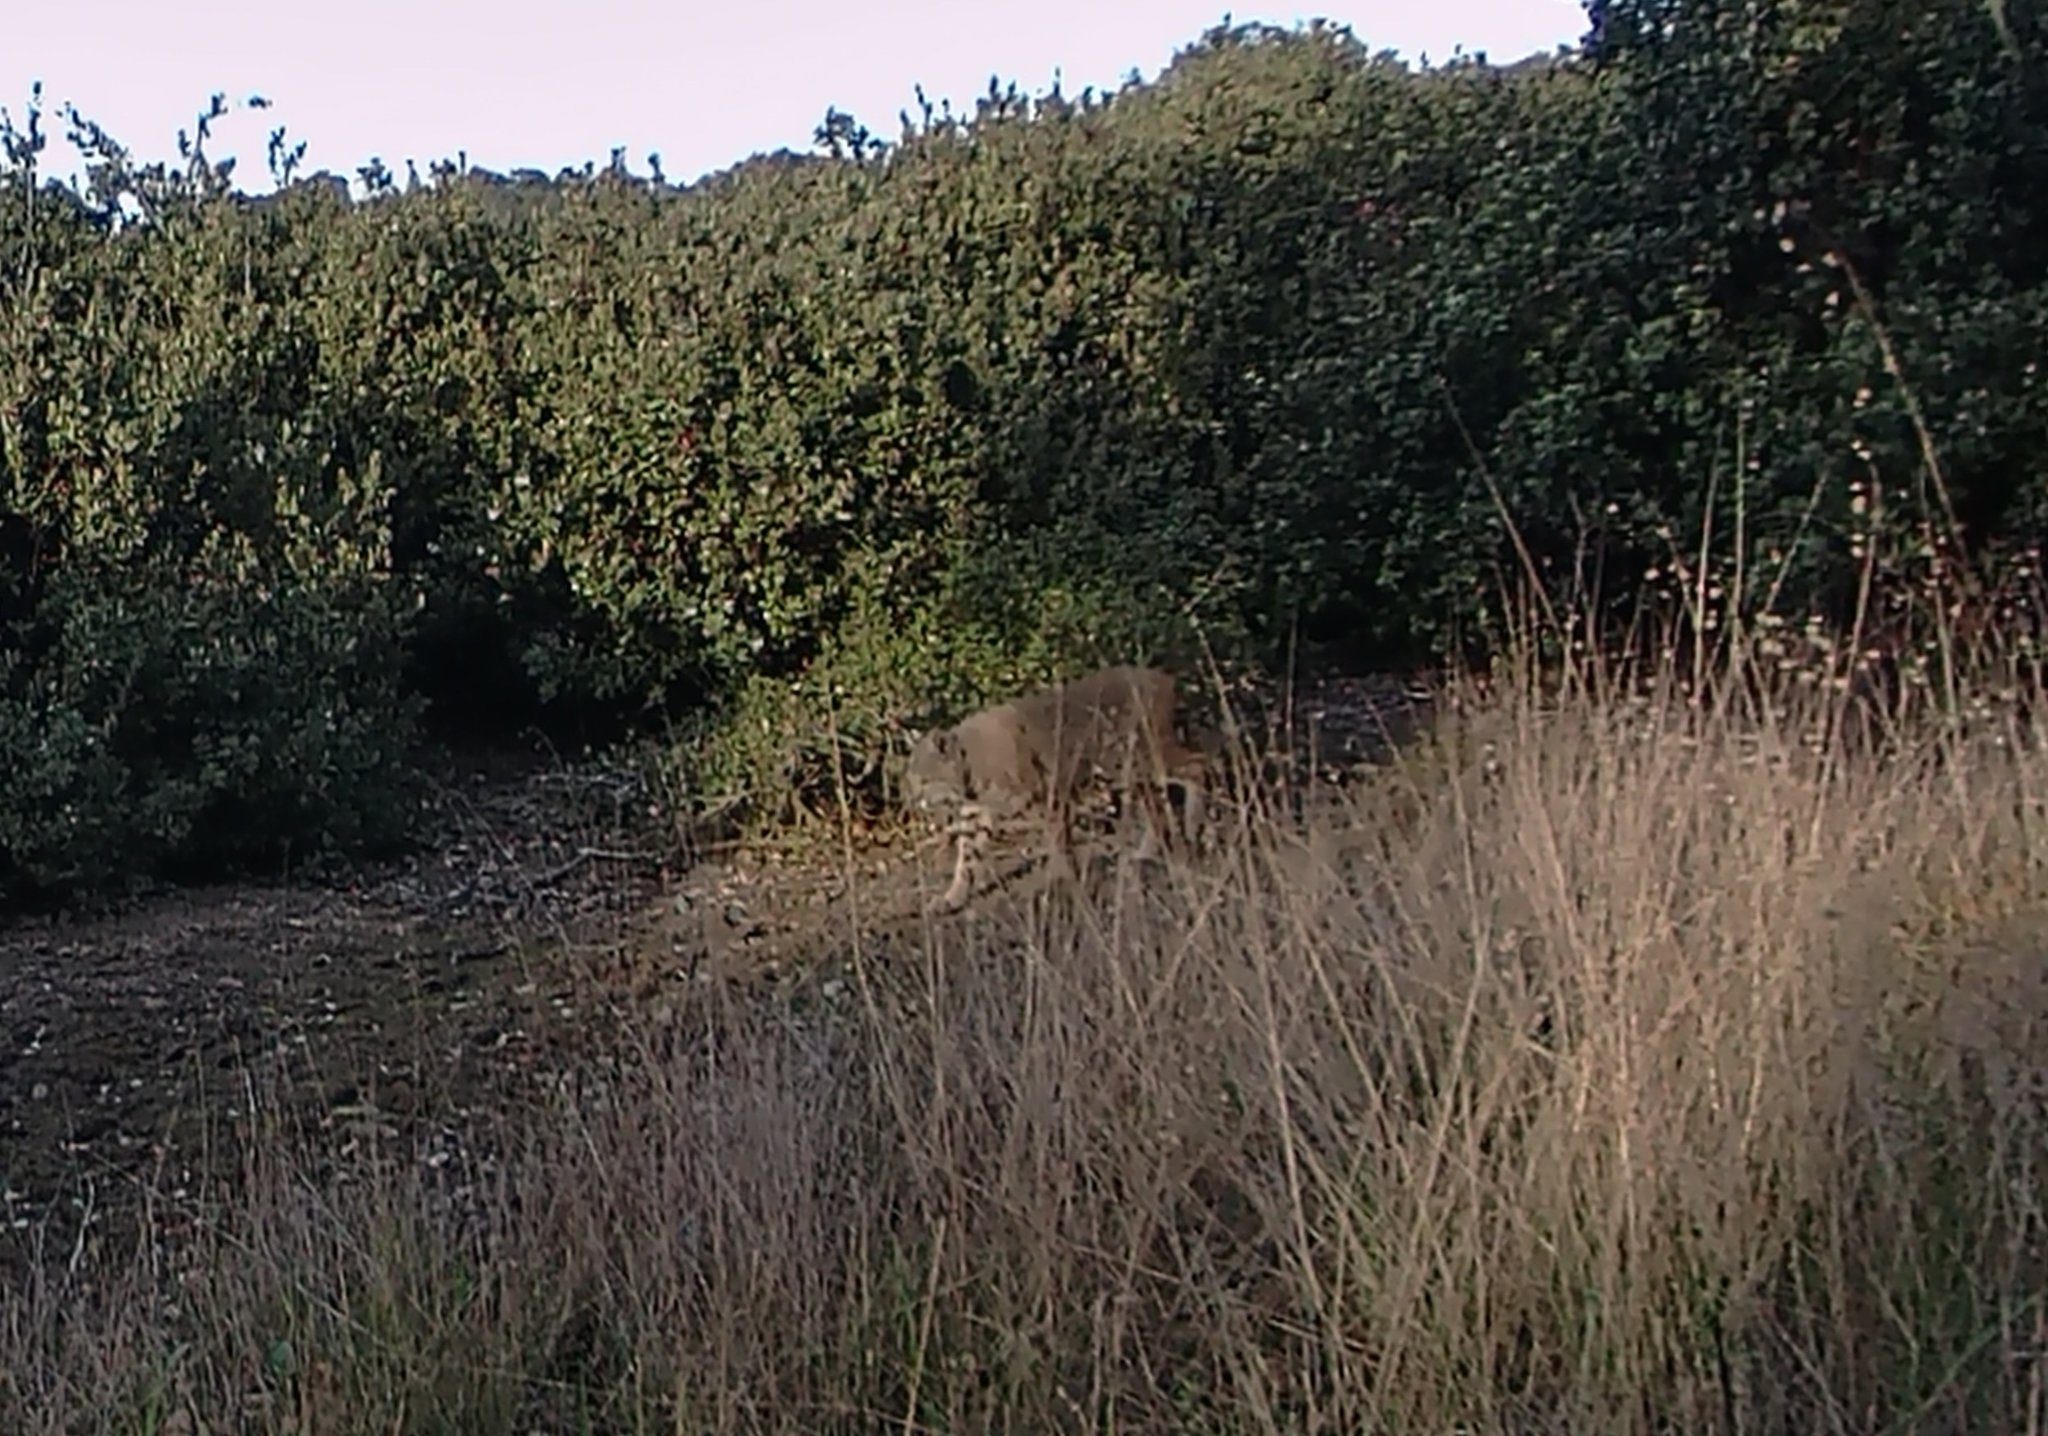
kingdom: Animalia
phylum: Chordata
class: Mammalia
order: Carnivora
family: Felidae
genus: Lynx
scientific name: Lynx rufus
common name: Bobcat
